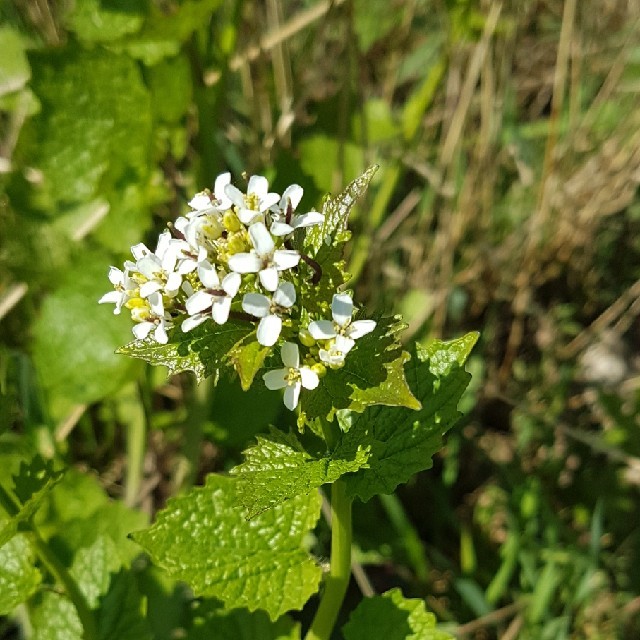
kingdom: Plantae
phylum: Tracheophyta
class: Magnoliopsida
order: Brassicales
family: Brassicaceae
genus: Alliaria
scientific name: Alliaria petiolata
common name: Garlic mustard
